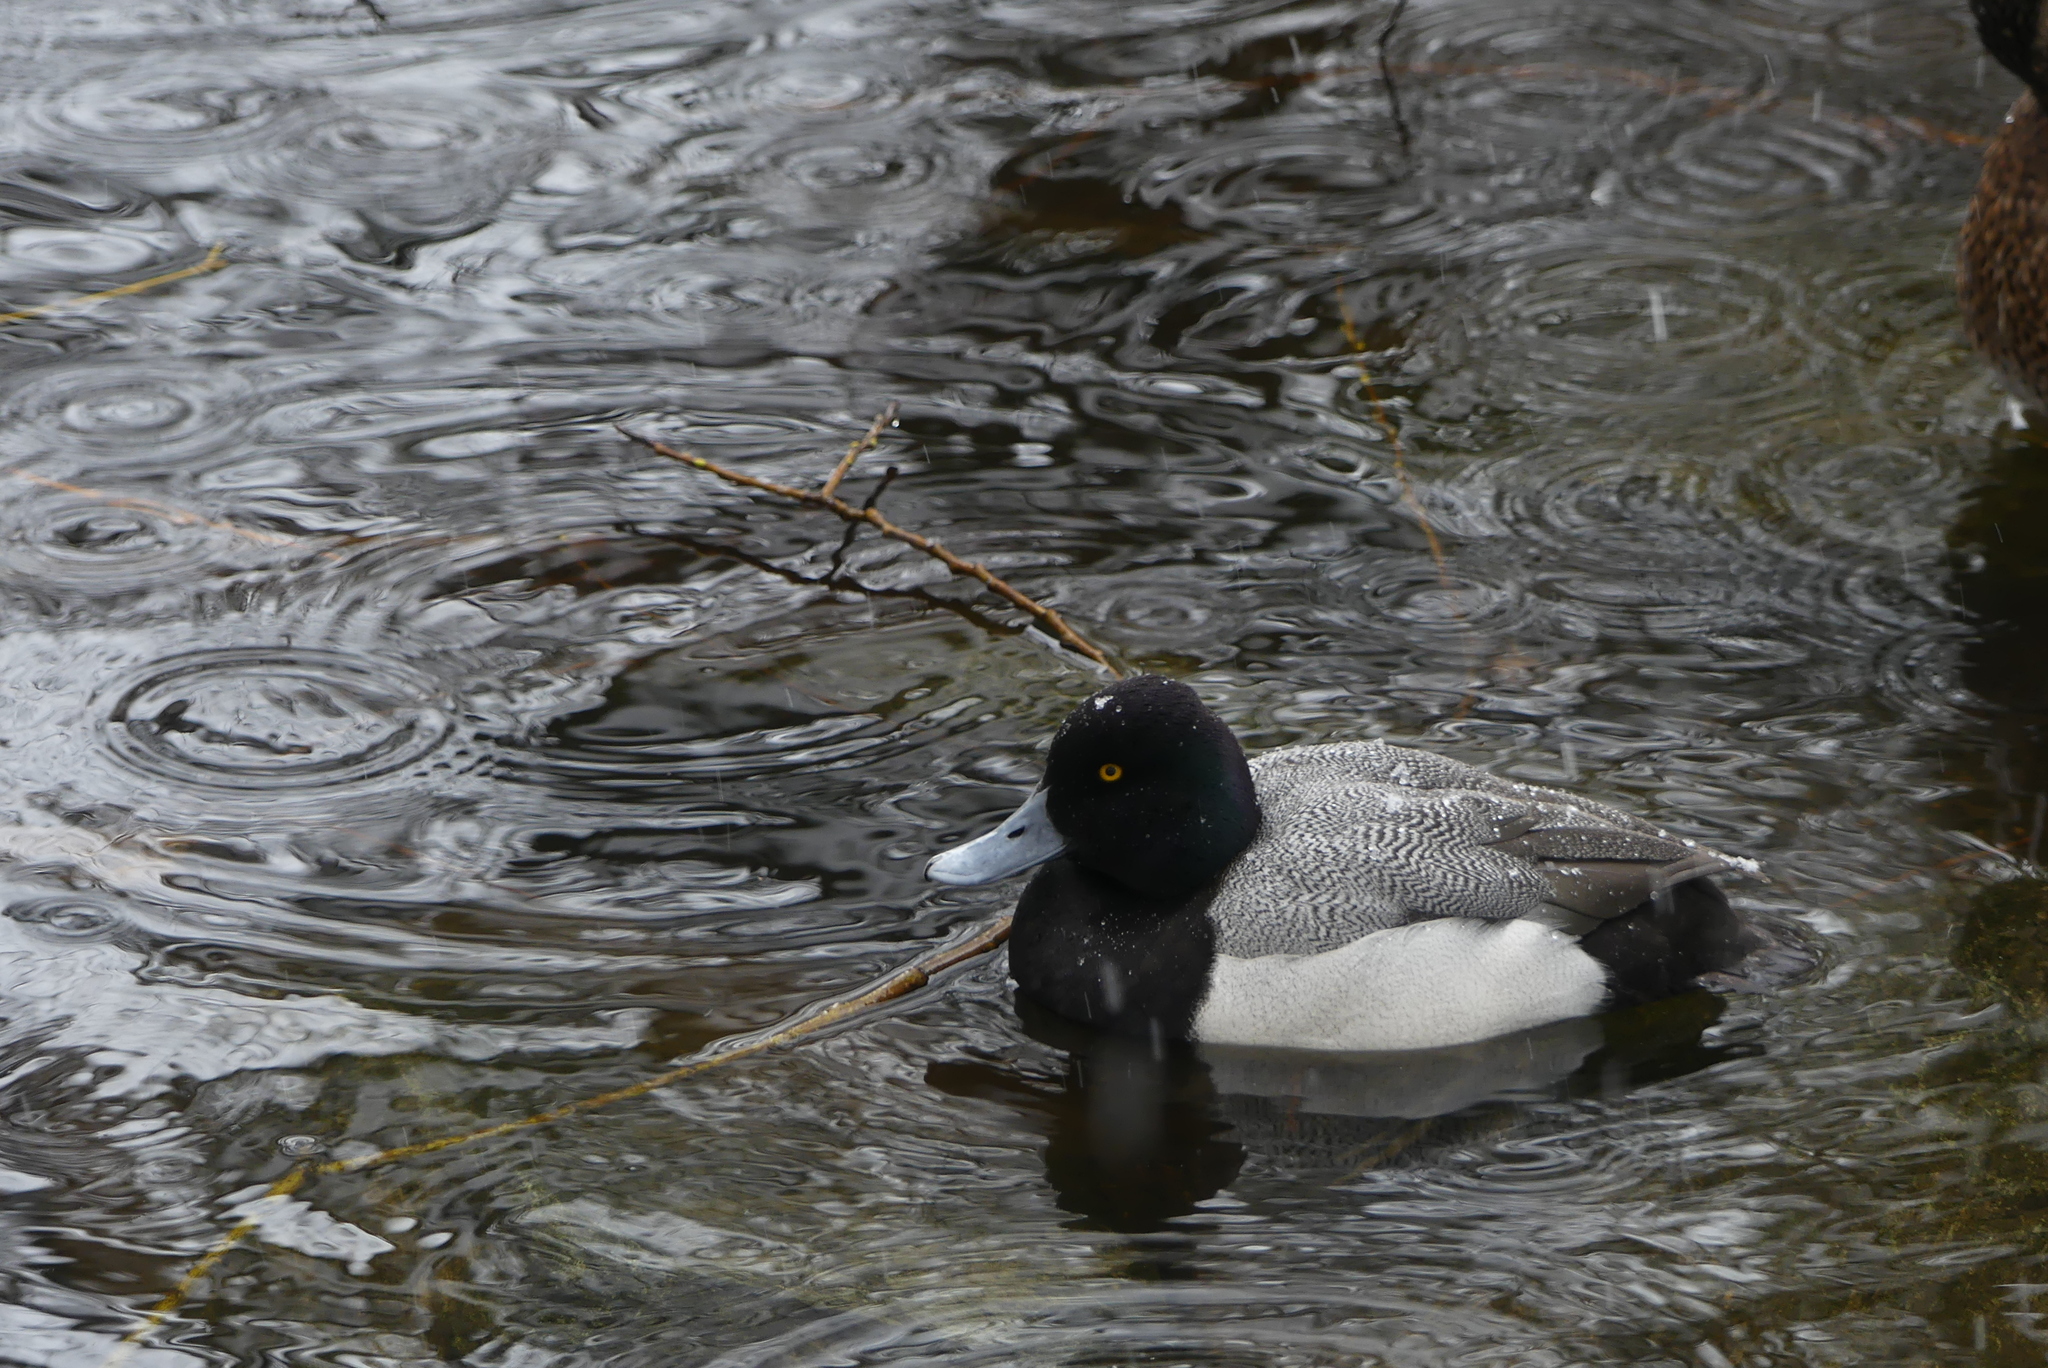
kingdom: Animalia
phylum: Chordata
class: Aves
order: Anseriformes
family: Anatidae
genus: Aythya
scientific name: Aythya affinis
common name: Lesser scaup
